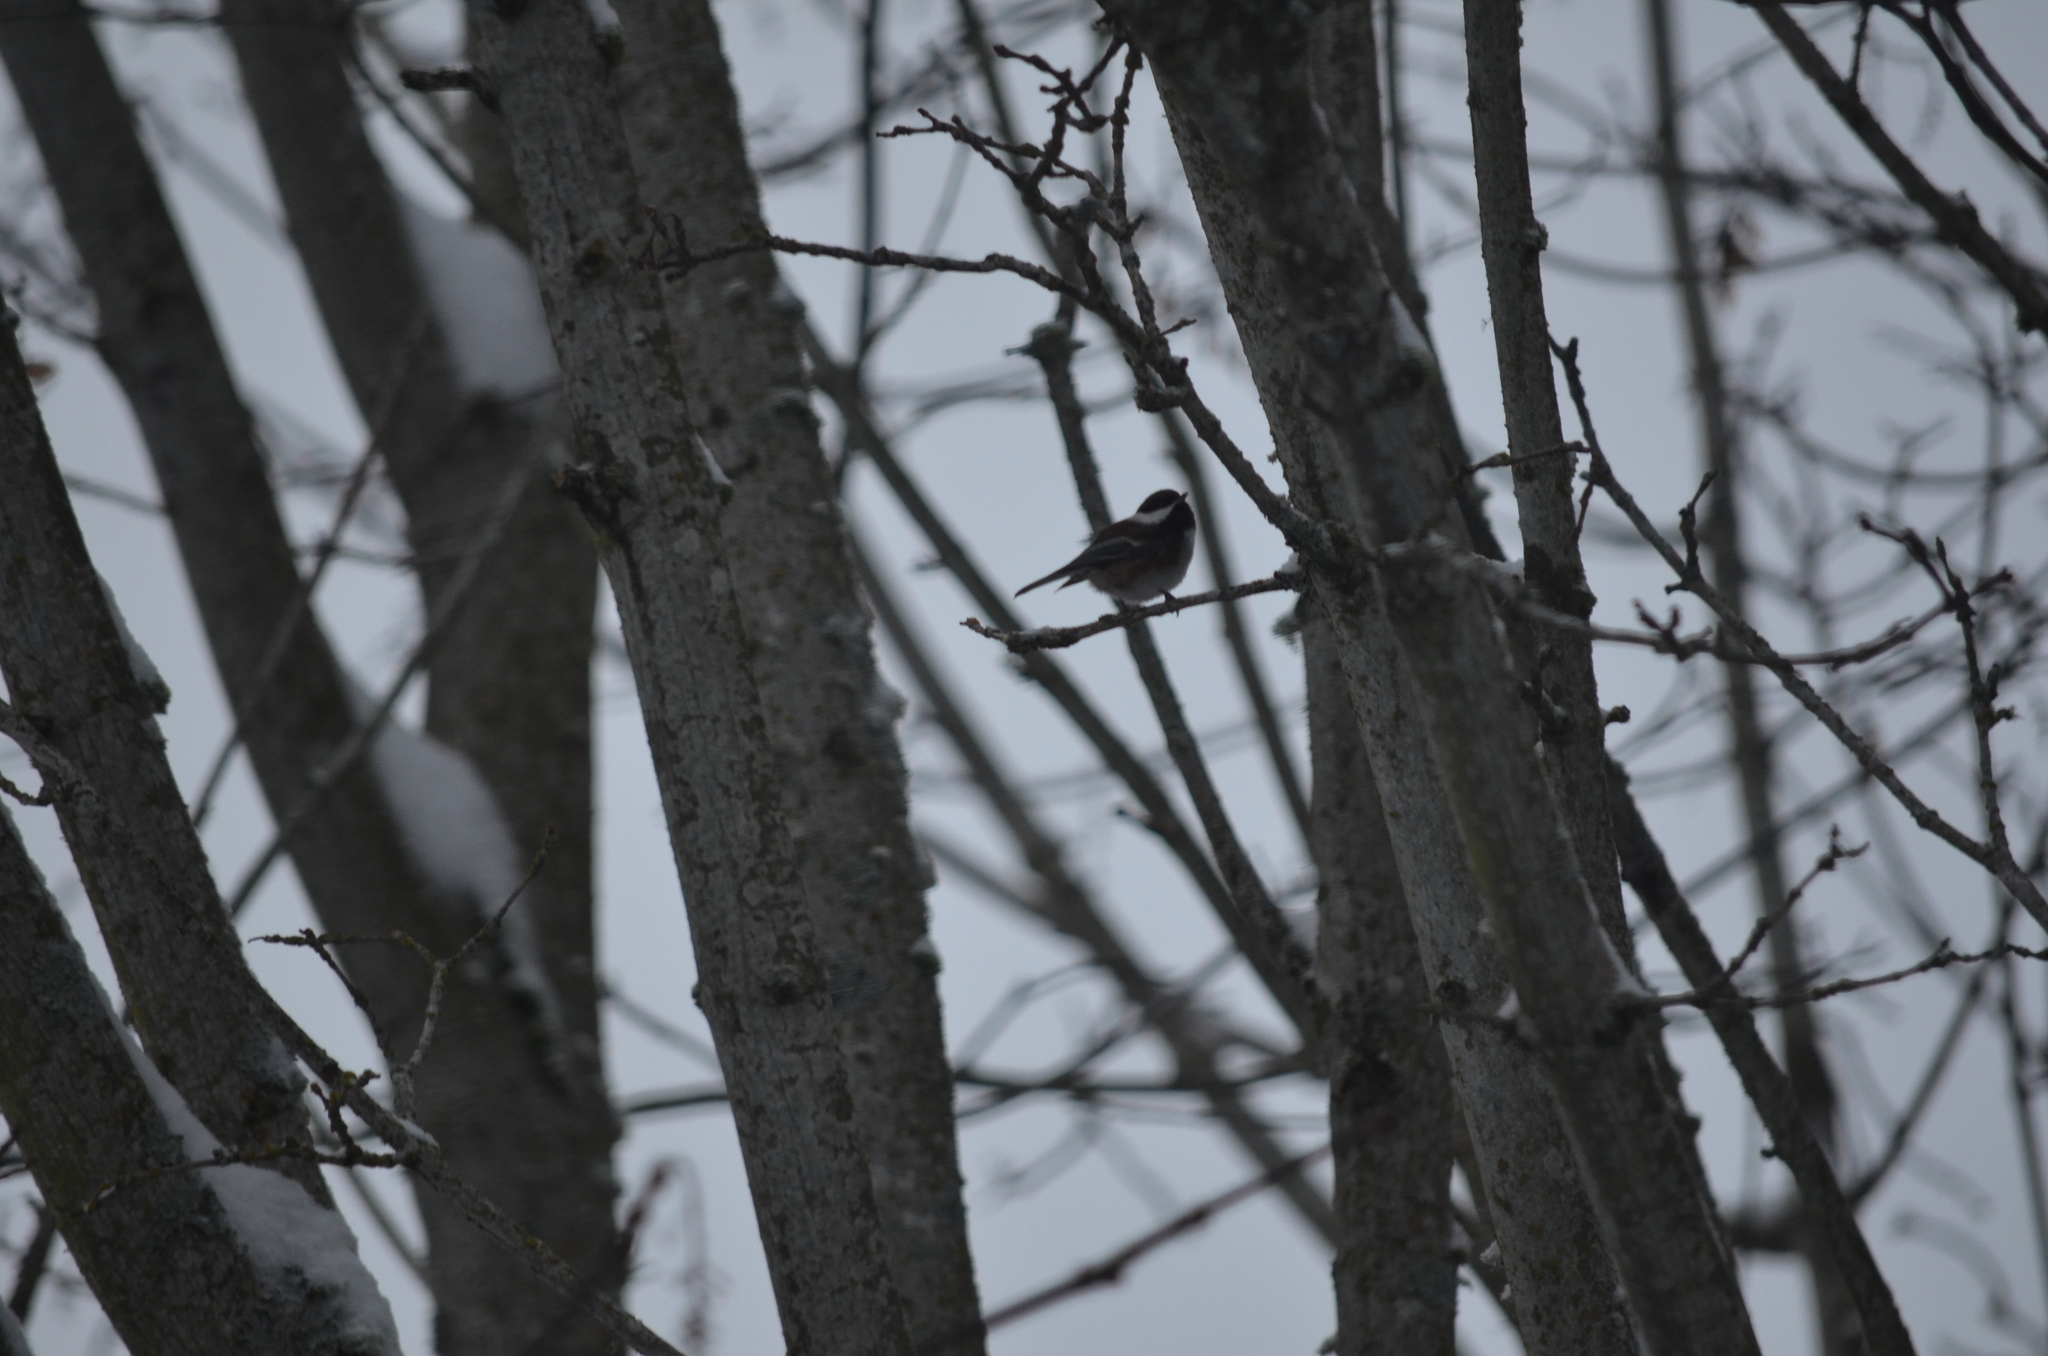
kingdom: Animalia
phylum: Chordata
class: Aves
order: Passeriformes
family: Paridae
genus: Poecile
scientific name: Poecile rufescens
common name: Chestnut-backed chickadee
